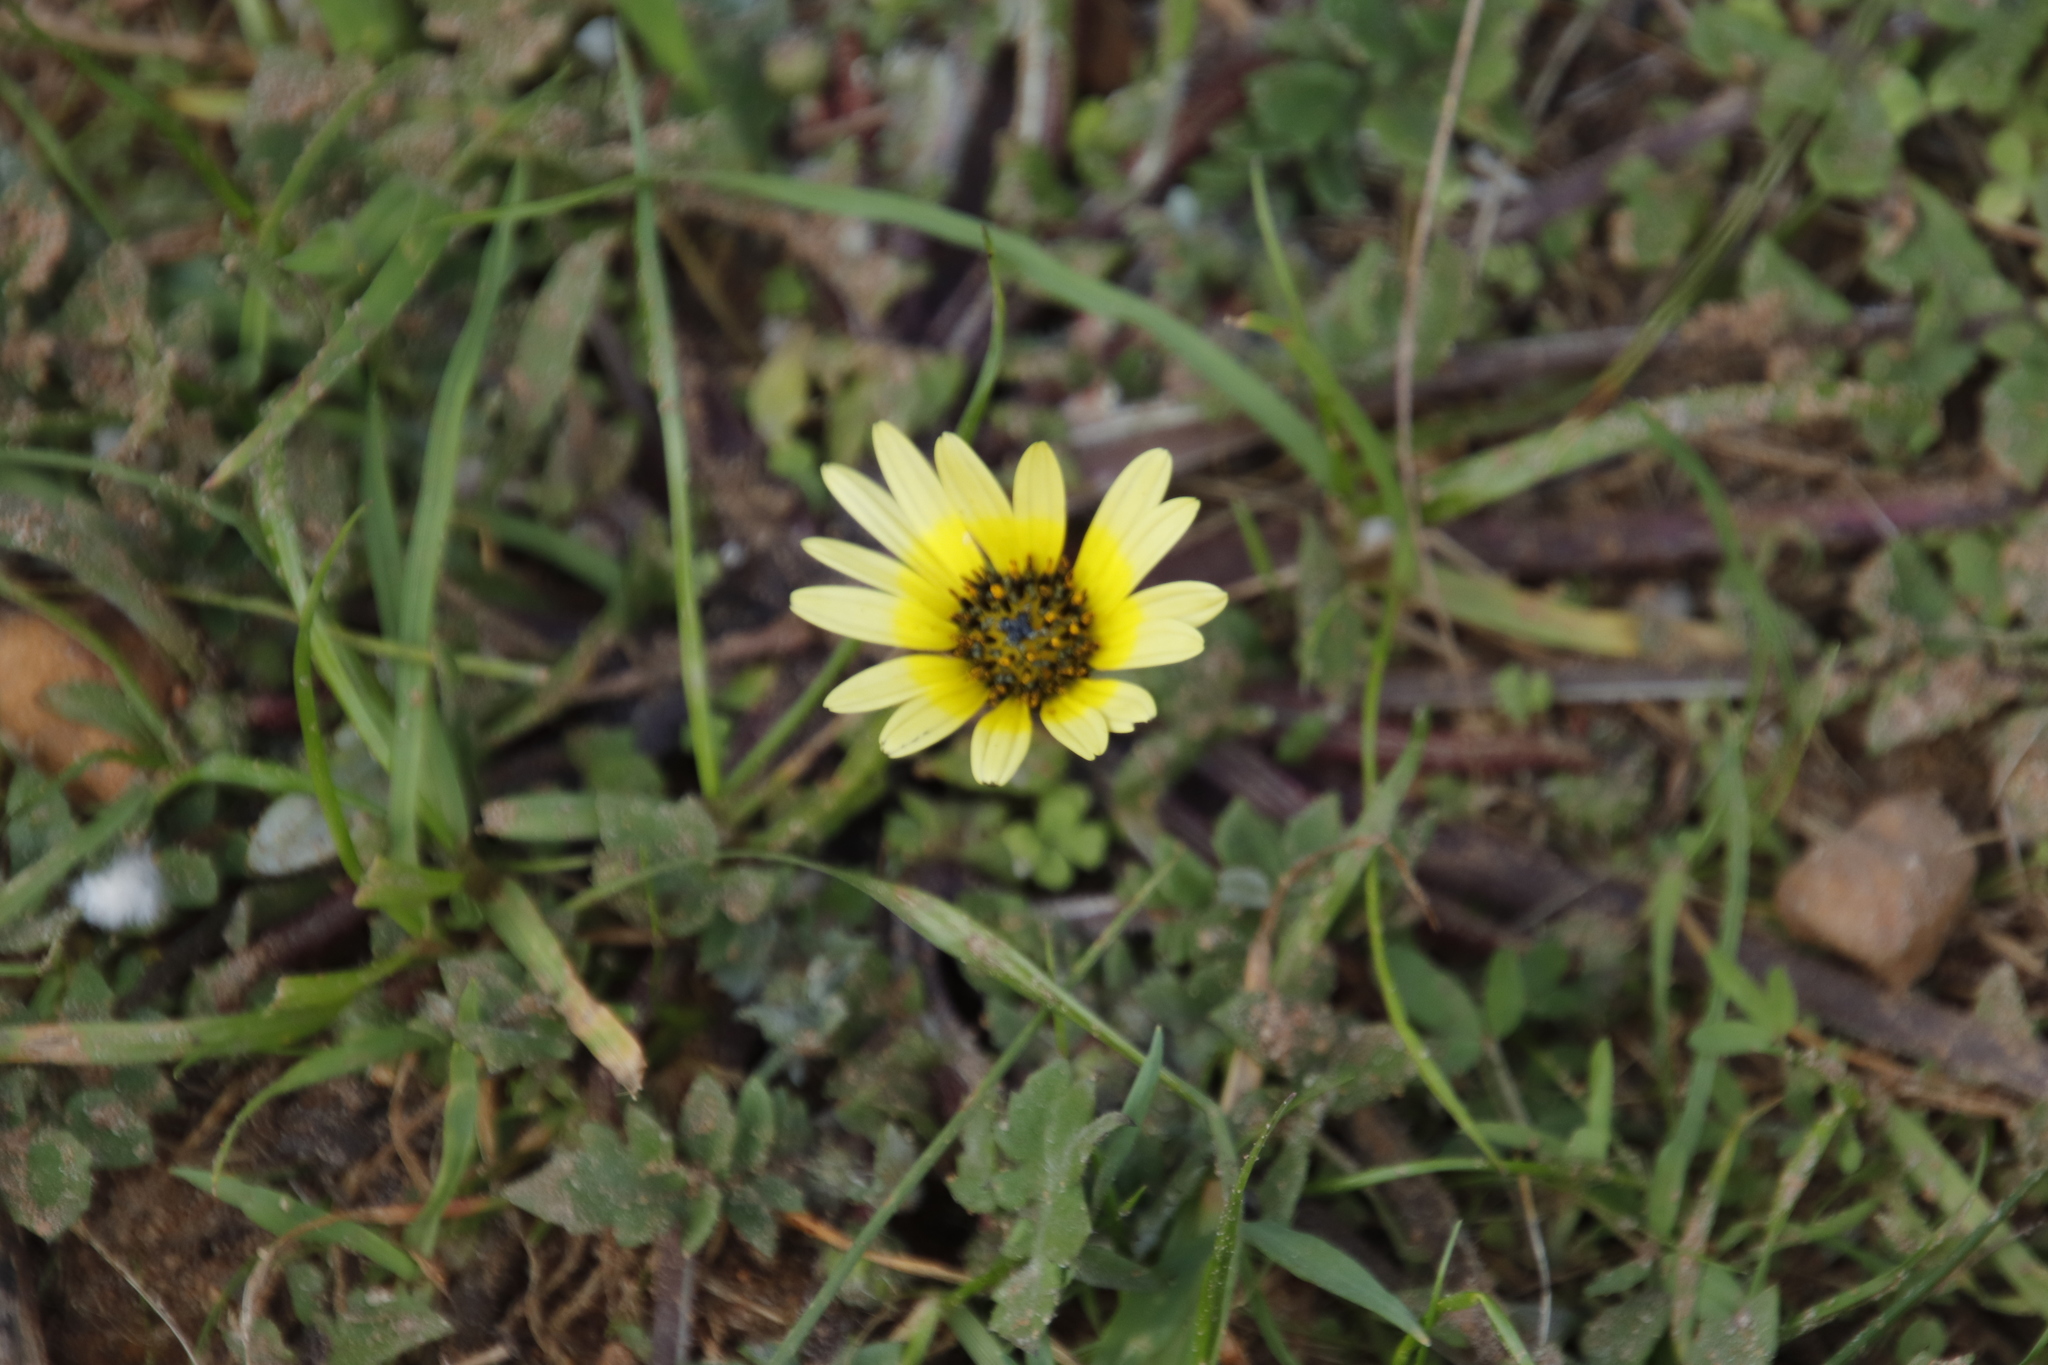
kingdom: Plantae
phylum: Tracheophyta
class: Magnoliopsida
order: Asterales
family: Asteraceae
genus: Arctotheca
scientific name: Arctotheca calendula
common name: Capeweed
